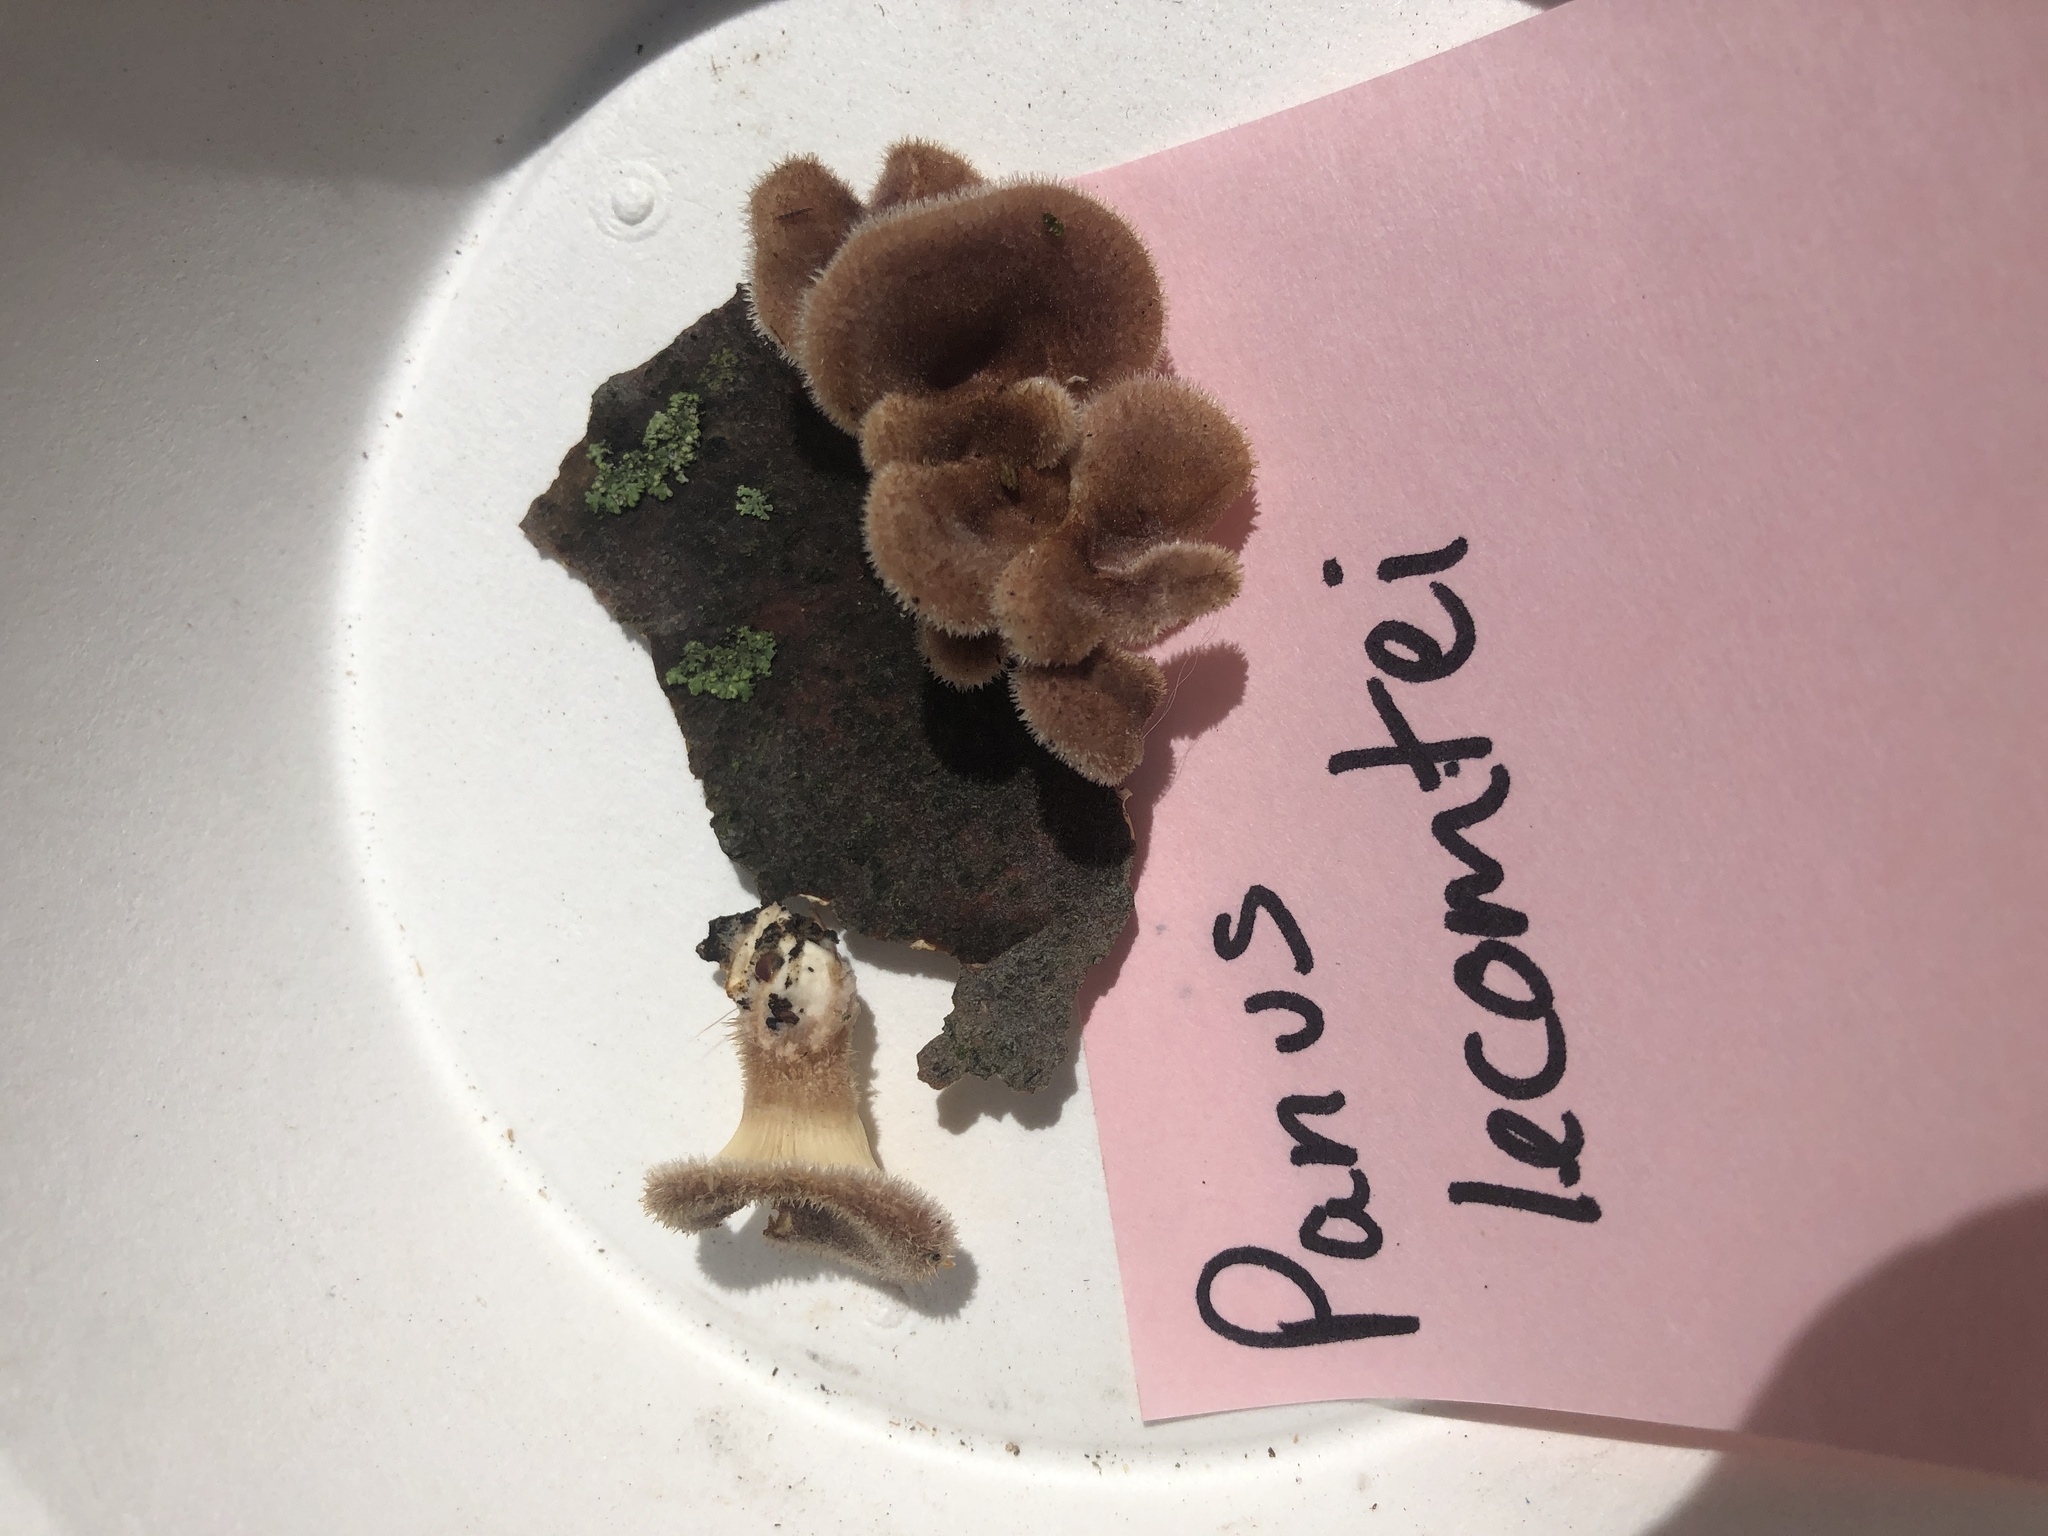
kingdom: Fungi
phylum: Basidiomycota
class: Agaricomycetes
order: Polyporales
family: Panaceae
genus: Panus
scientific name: Panus neostrigosus
